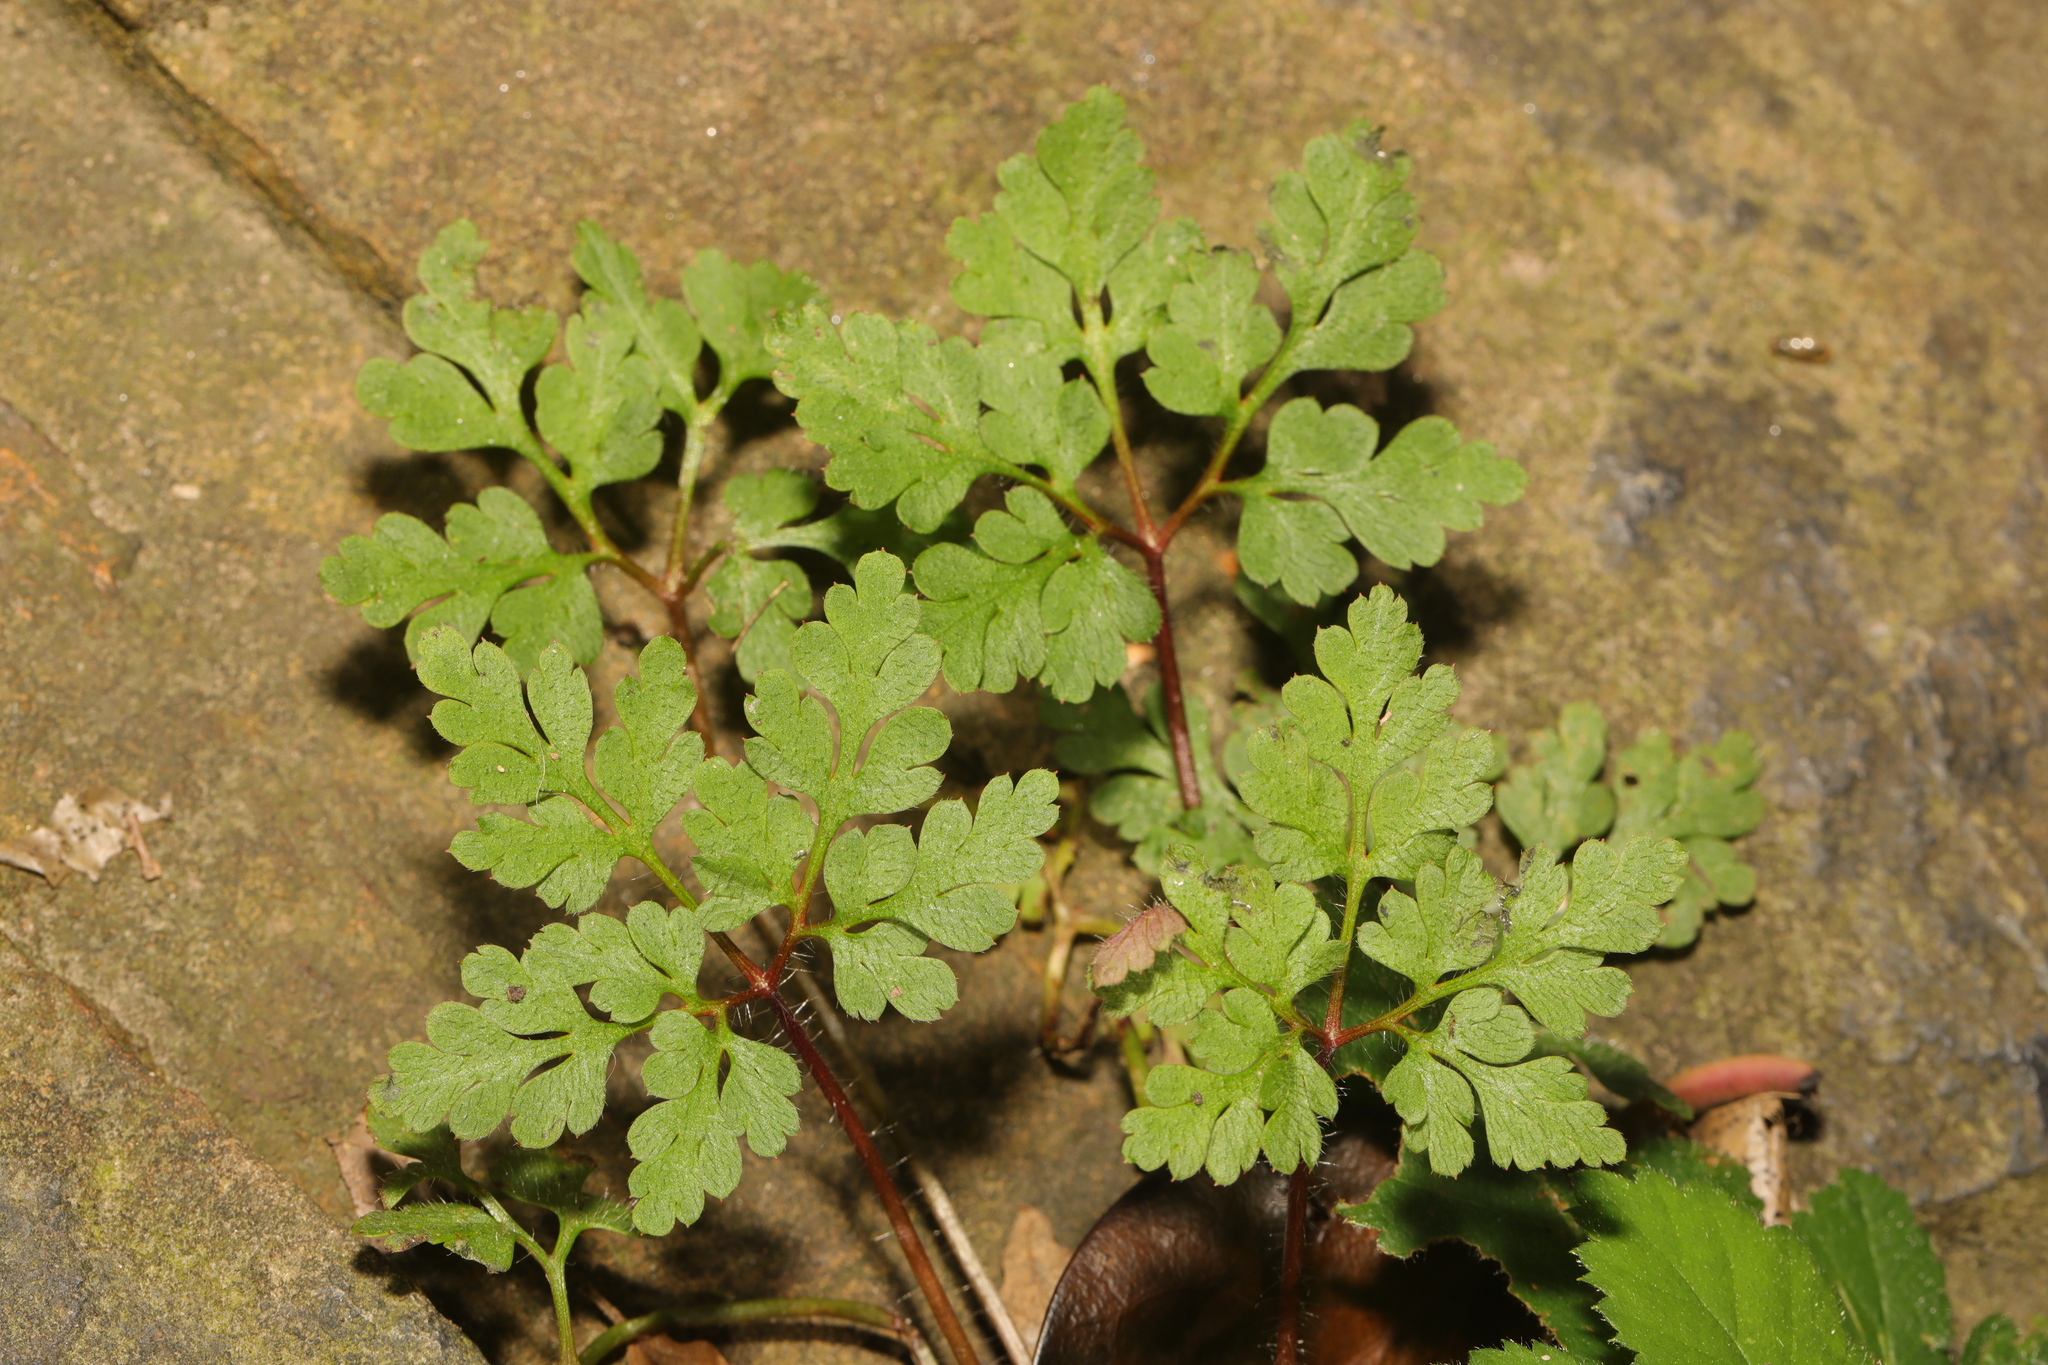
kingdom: Plantae
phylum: Tracheophyta
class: Magnoliopsida
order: Geraniales
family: Geraniaceae
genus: Geranium
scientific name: Geranium robertianum
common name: Herb-robert
